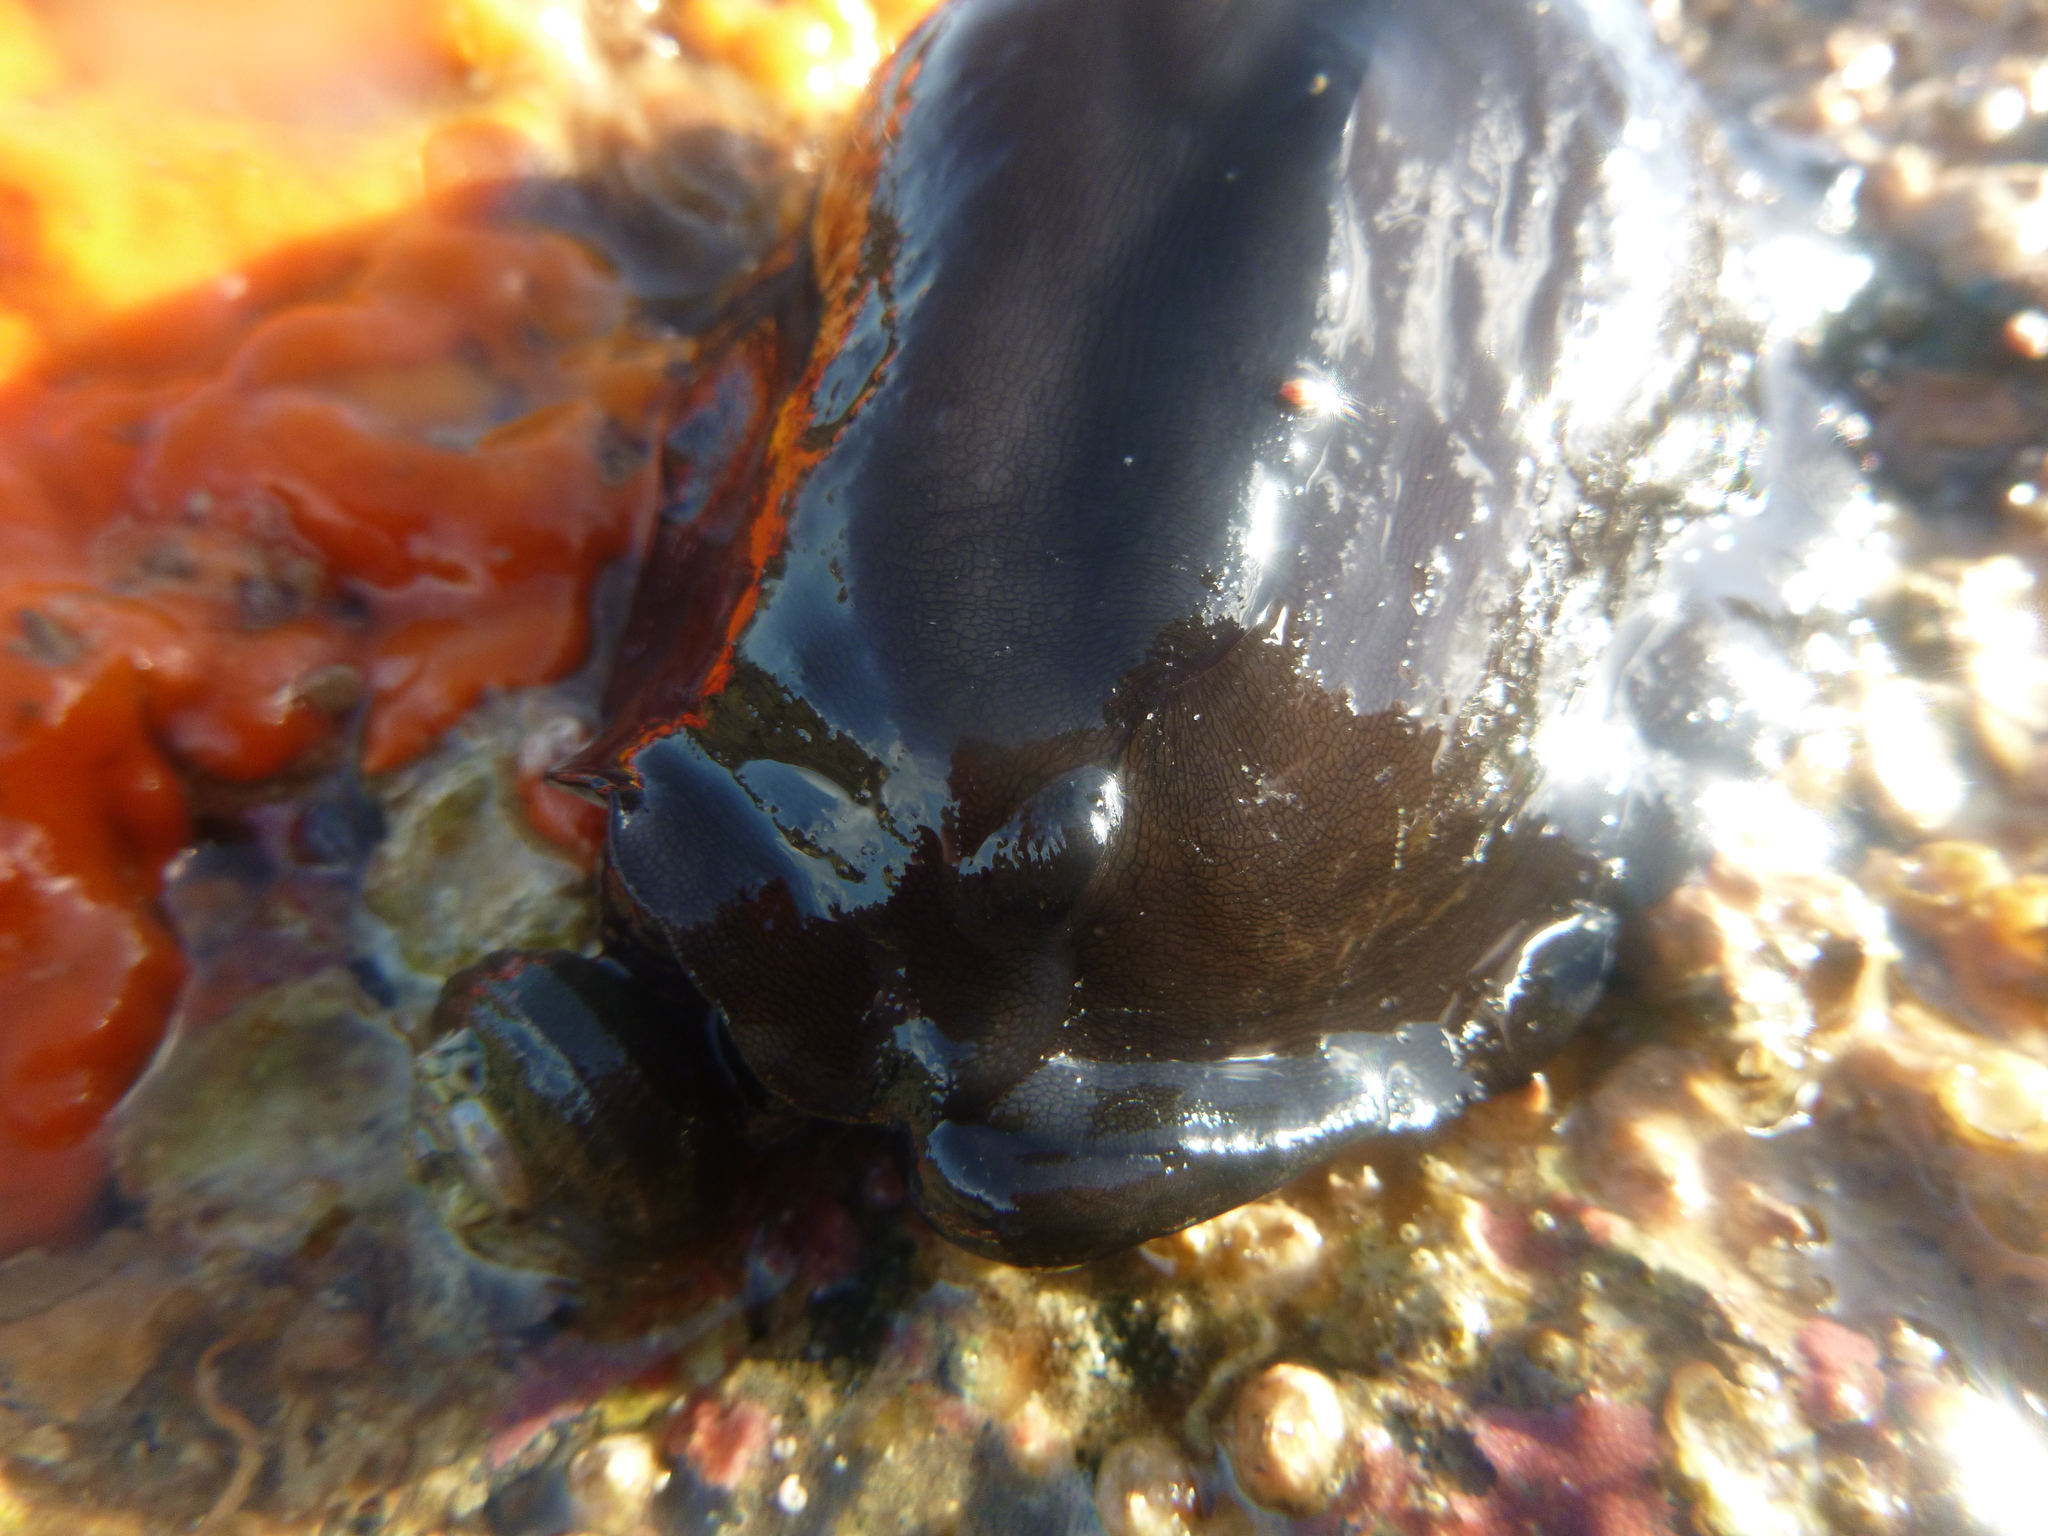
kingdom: Animalia
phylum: Mollusca
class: Gastropoda
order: Lepetellida
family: Fissurellidae
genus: Scutus
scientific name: Scutus breviculus
